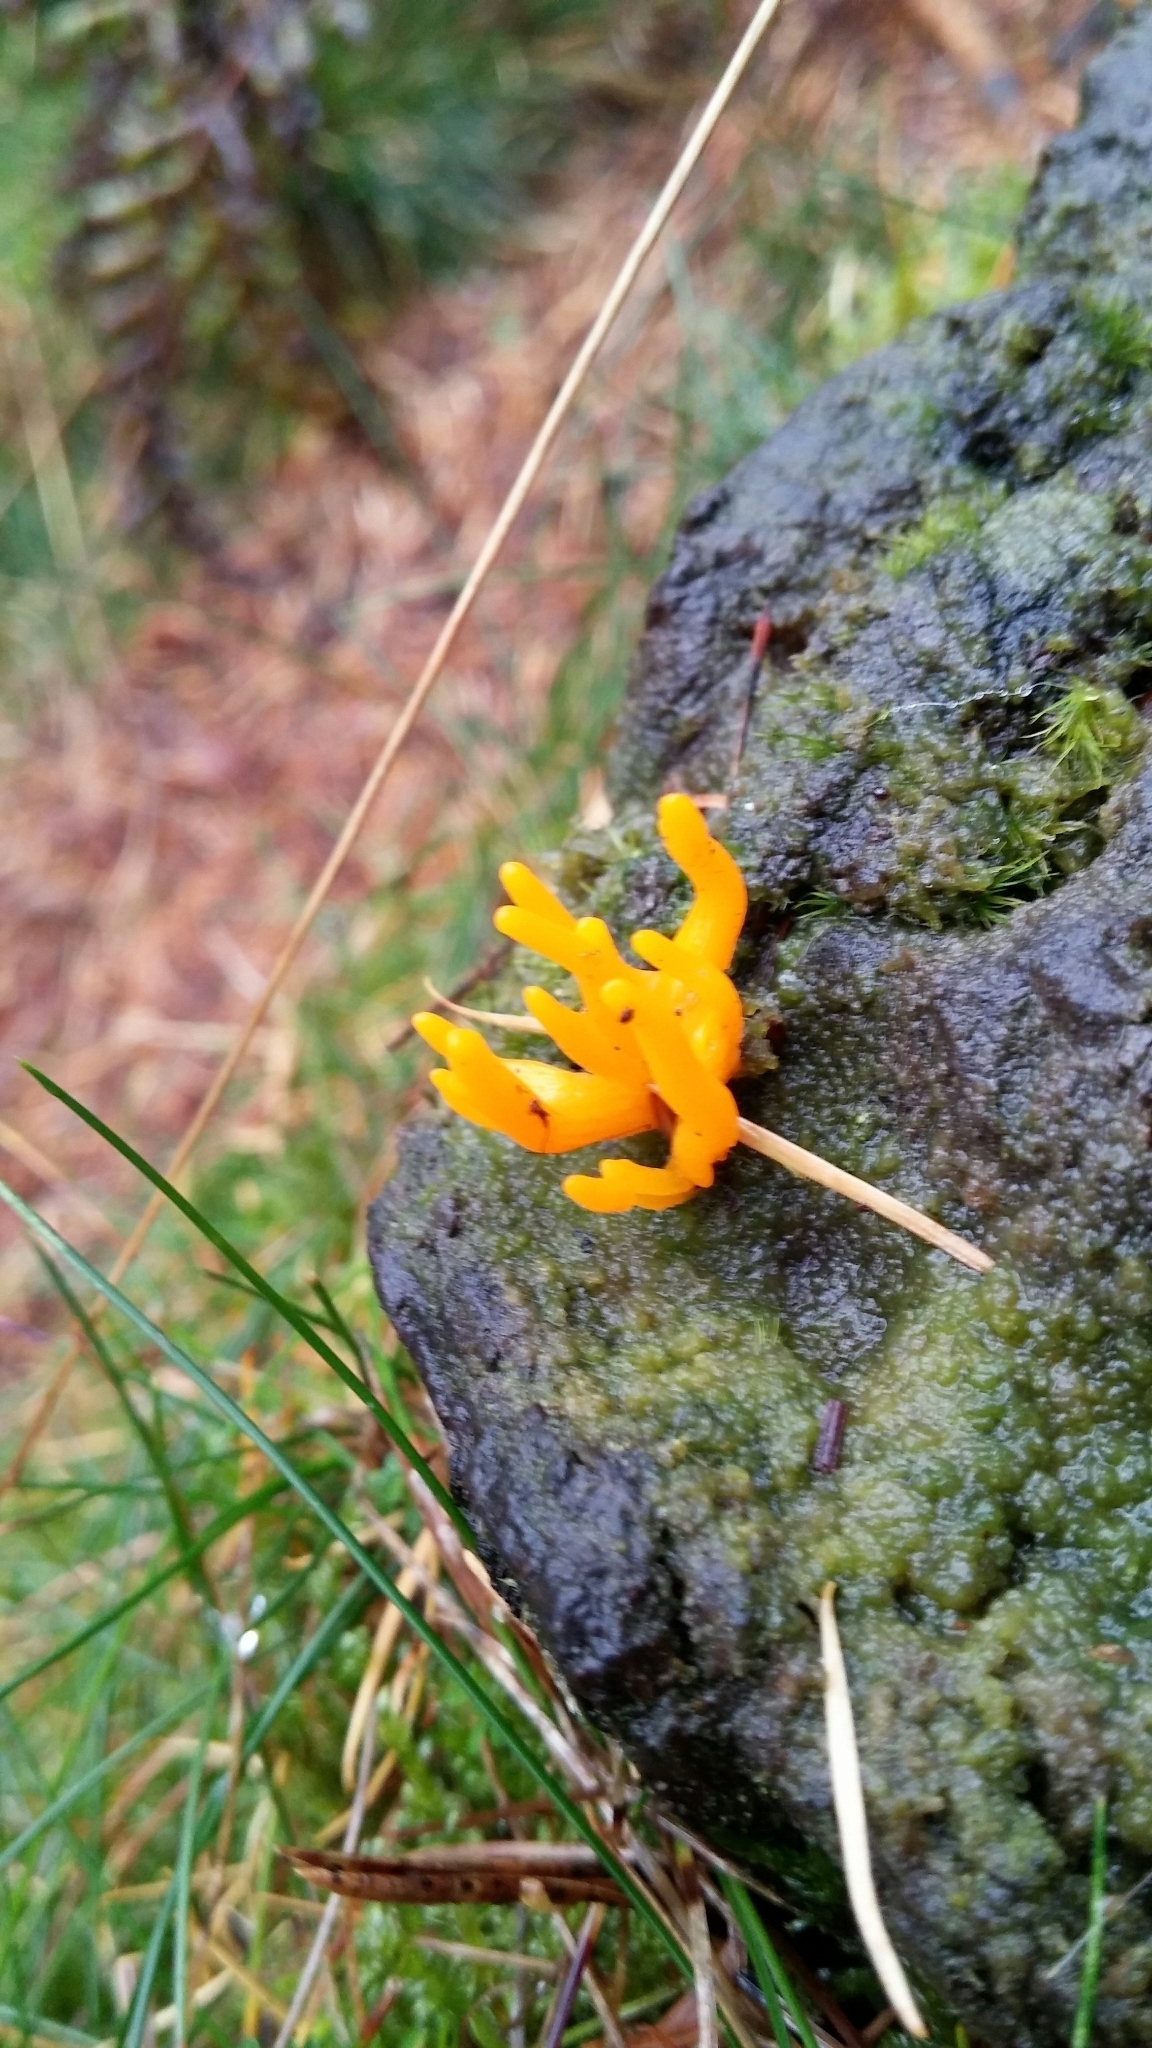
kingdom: Fungi
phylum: Basidiomycota
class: Dacrymycetes
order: Dacrymycetales
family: Dacrymycetaceae
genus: Calocera
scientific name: Calocera cornea
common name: Small stagshorn
